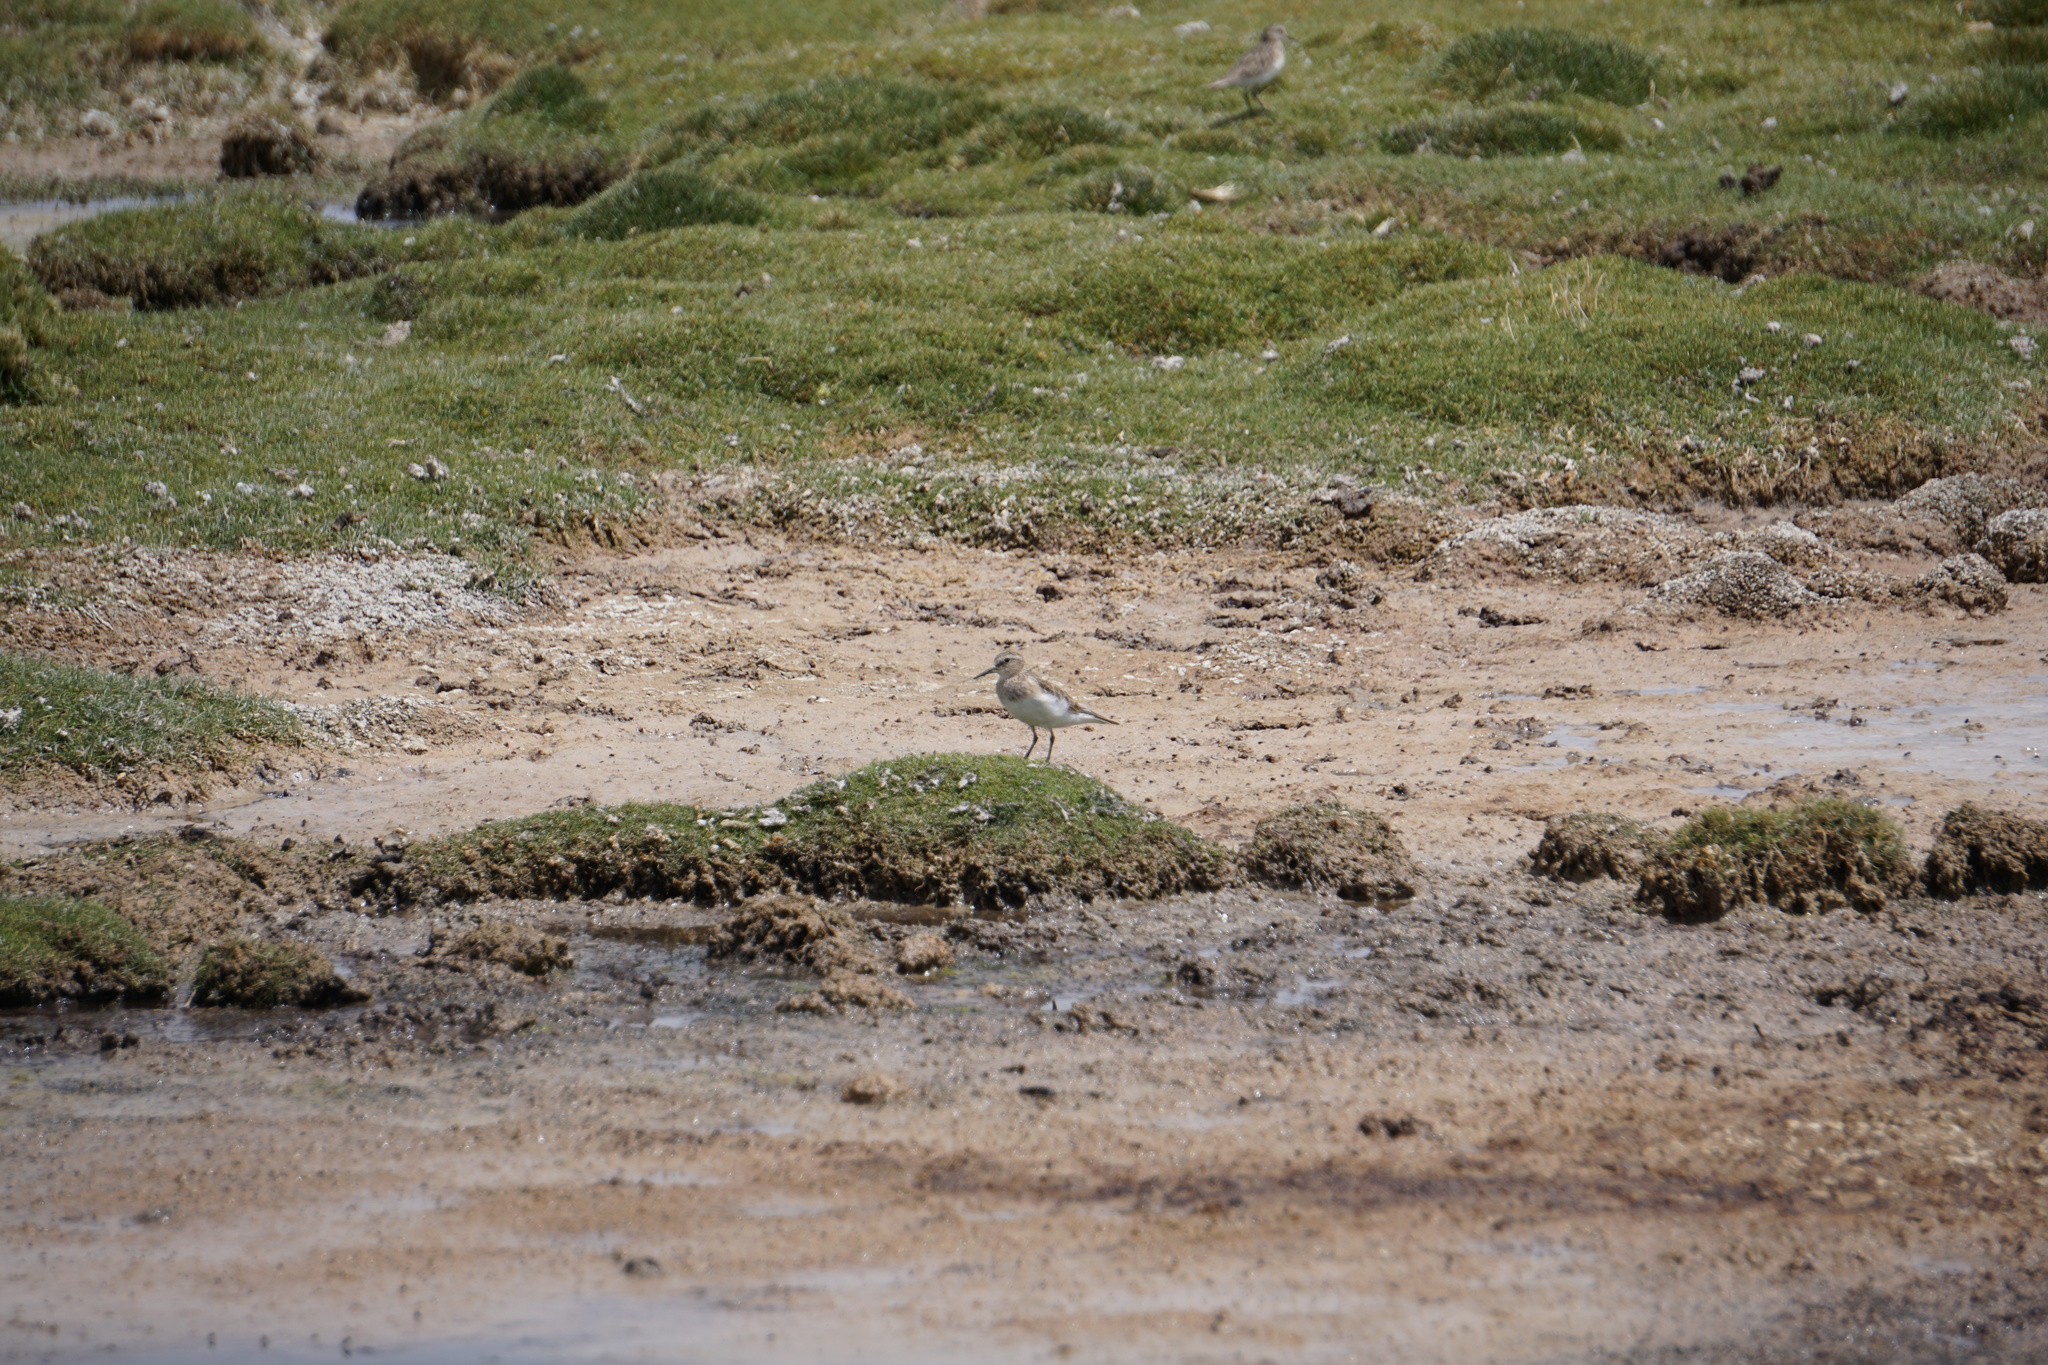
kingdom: Animalia
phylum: Chordata
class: Aves
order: Charadriiformes
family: Scolopacidae
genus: Calidris
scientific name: Calidris bairdii
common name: Baird's sandpiper
